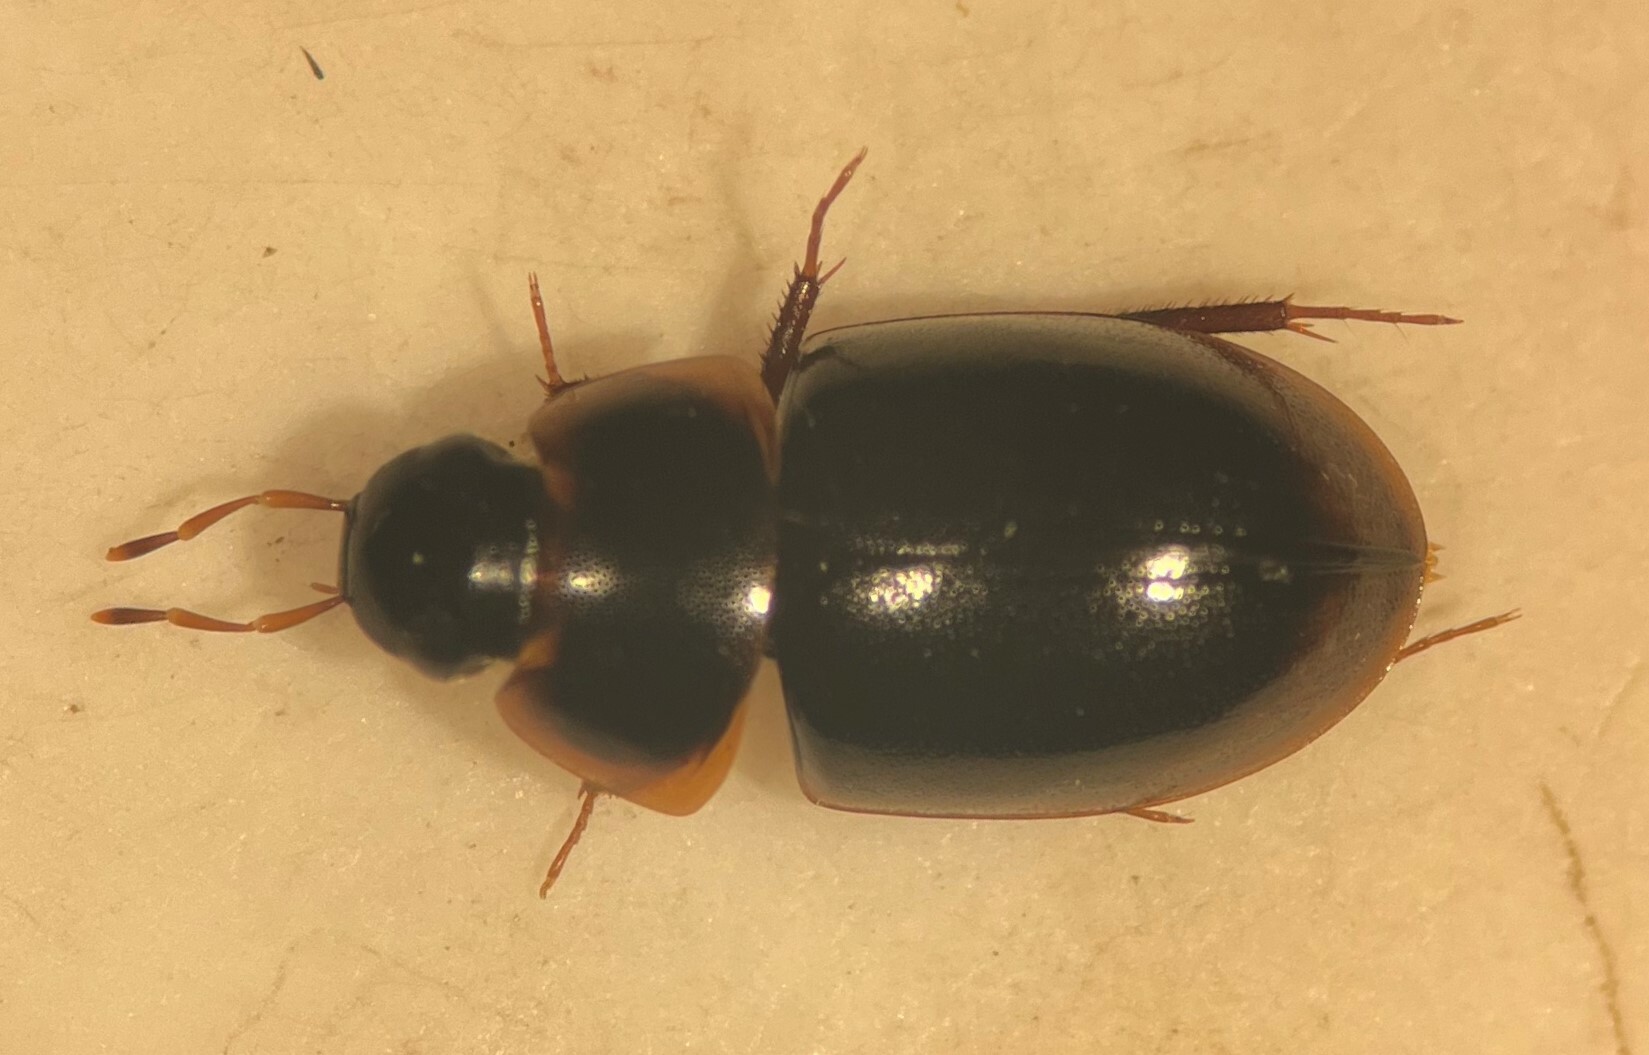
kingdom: Animalia
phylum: Arthropoda
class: Insecta
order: Coleoptera
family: Hydrophilidae
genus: Cymbiodyta
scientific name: Cymbiodyta acuminata
